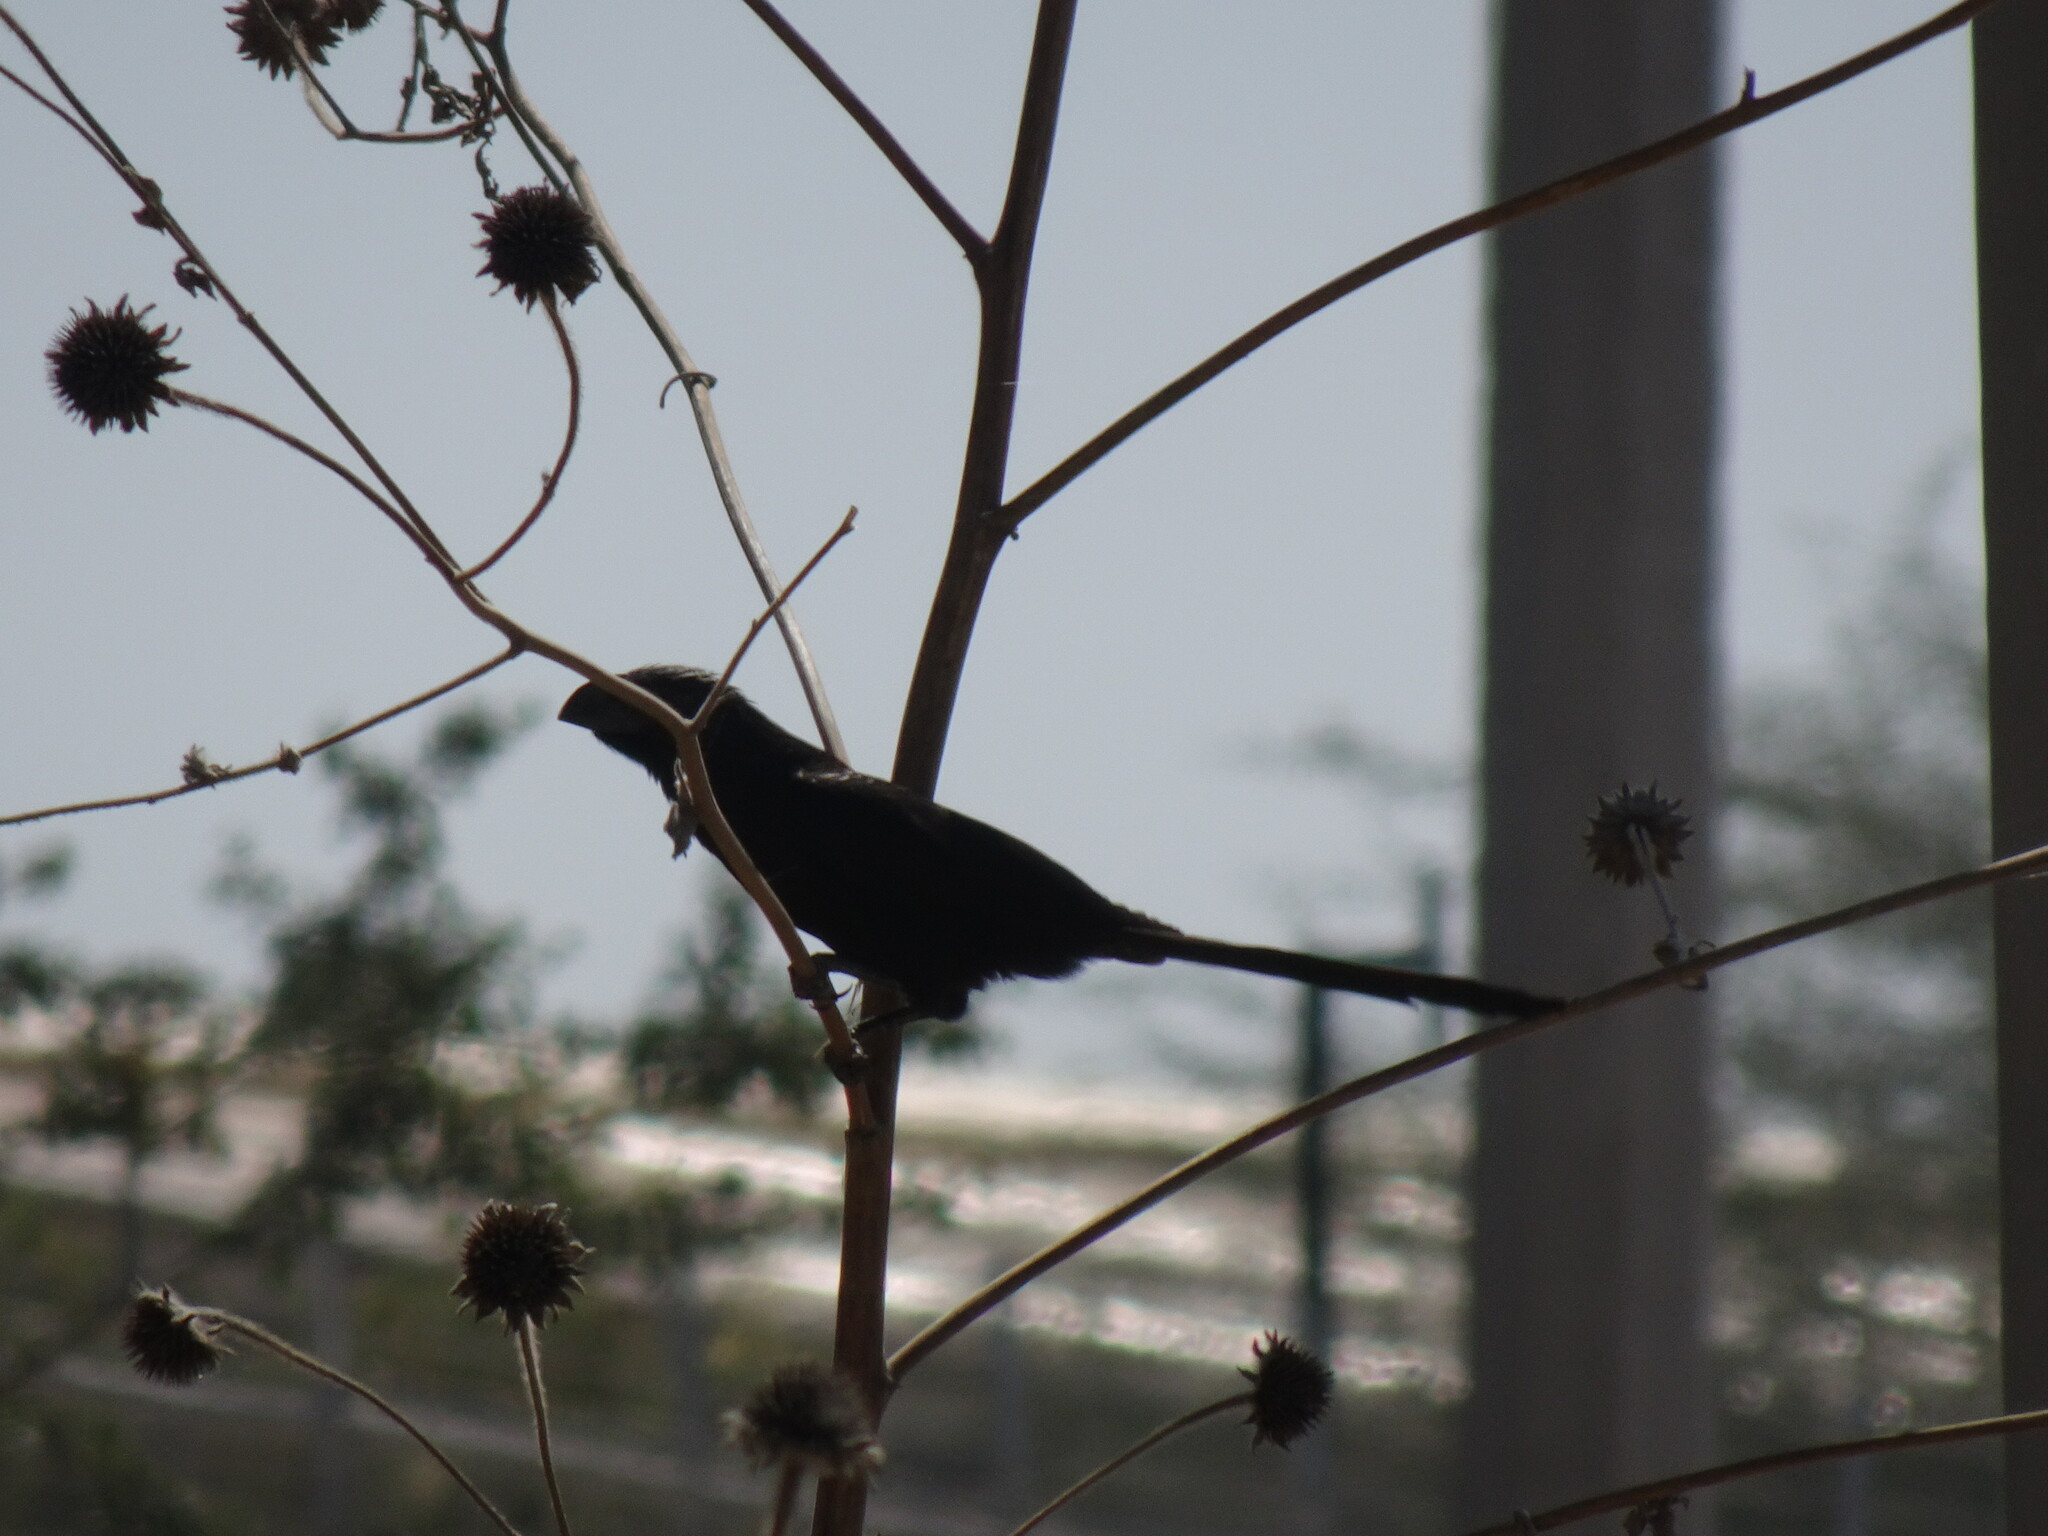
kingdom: Animalia
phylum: Chordata
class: Aves
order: Cuculiformes
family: Cuculidae
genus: Crotophaga
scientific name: Crotophaga sulcirostris
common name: Groove-billed ani
